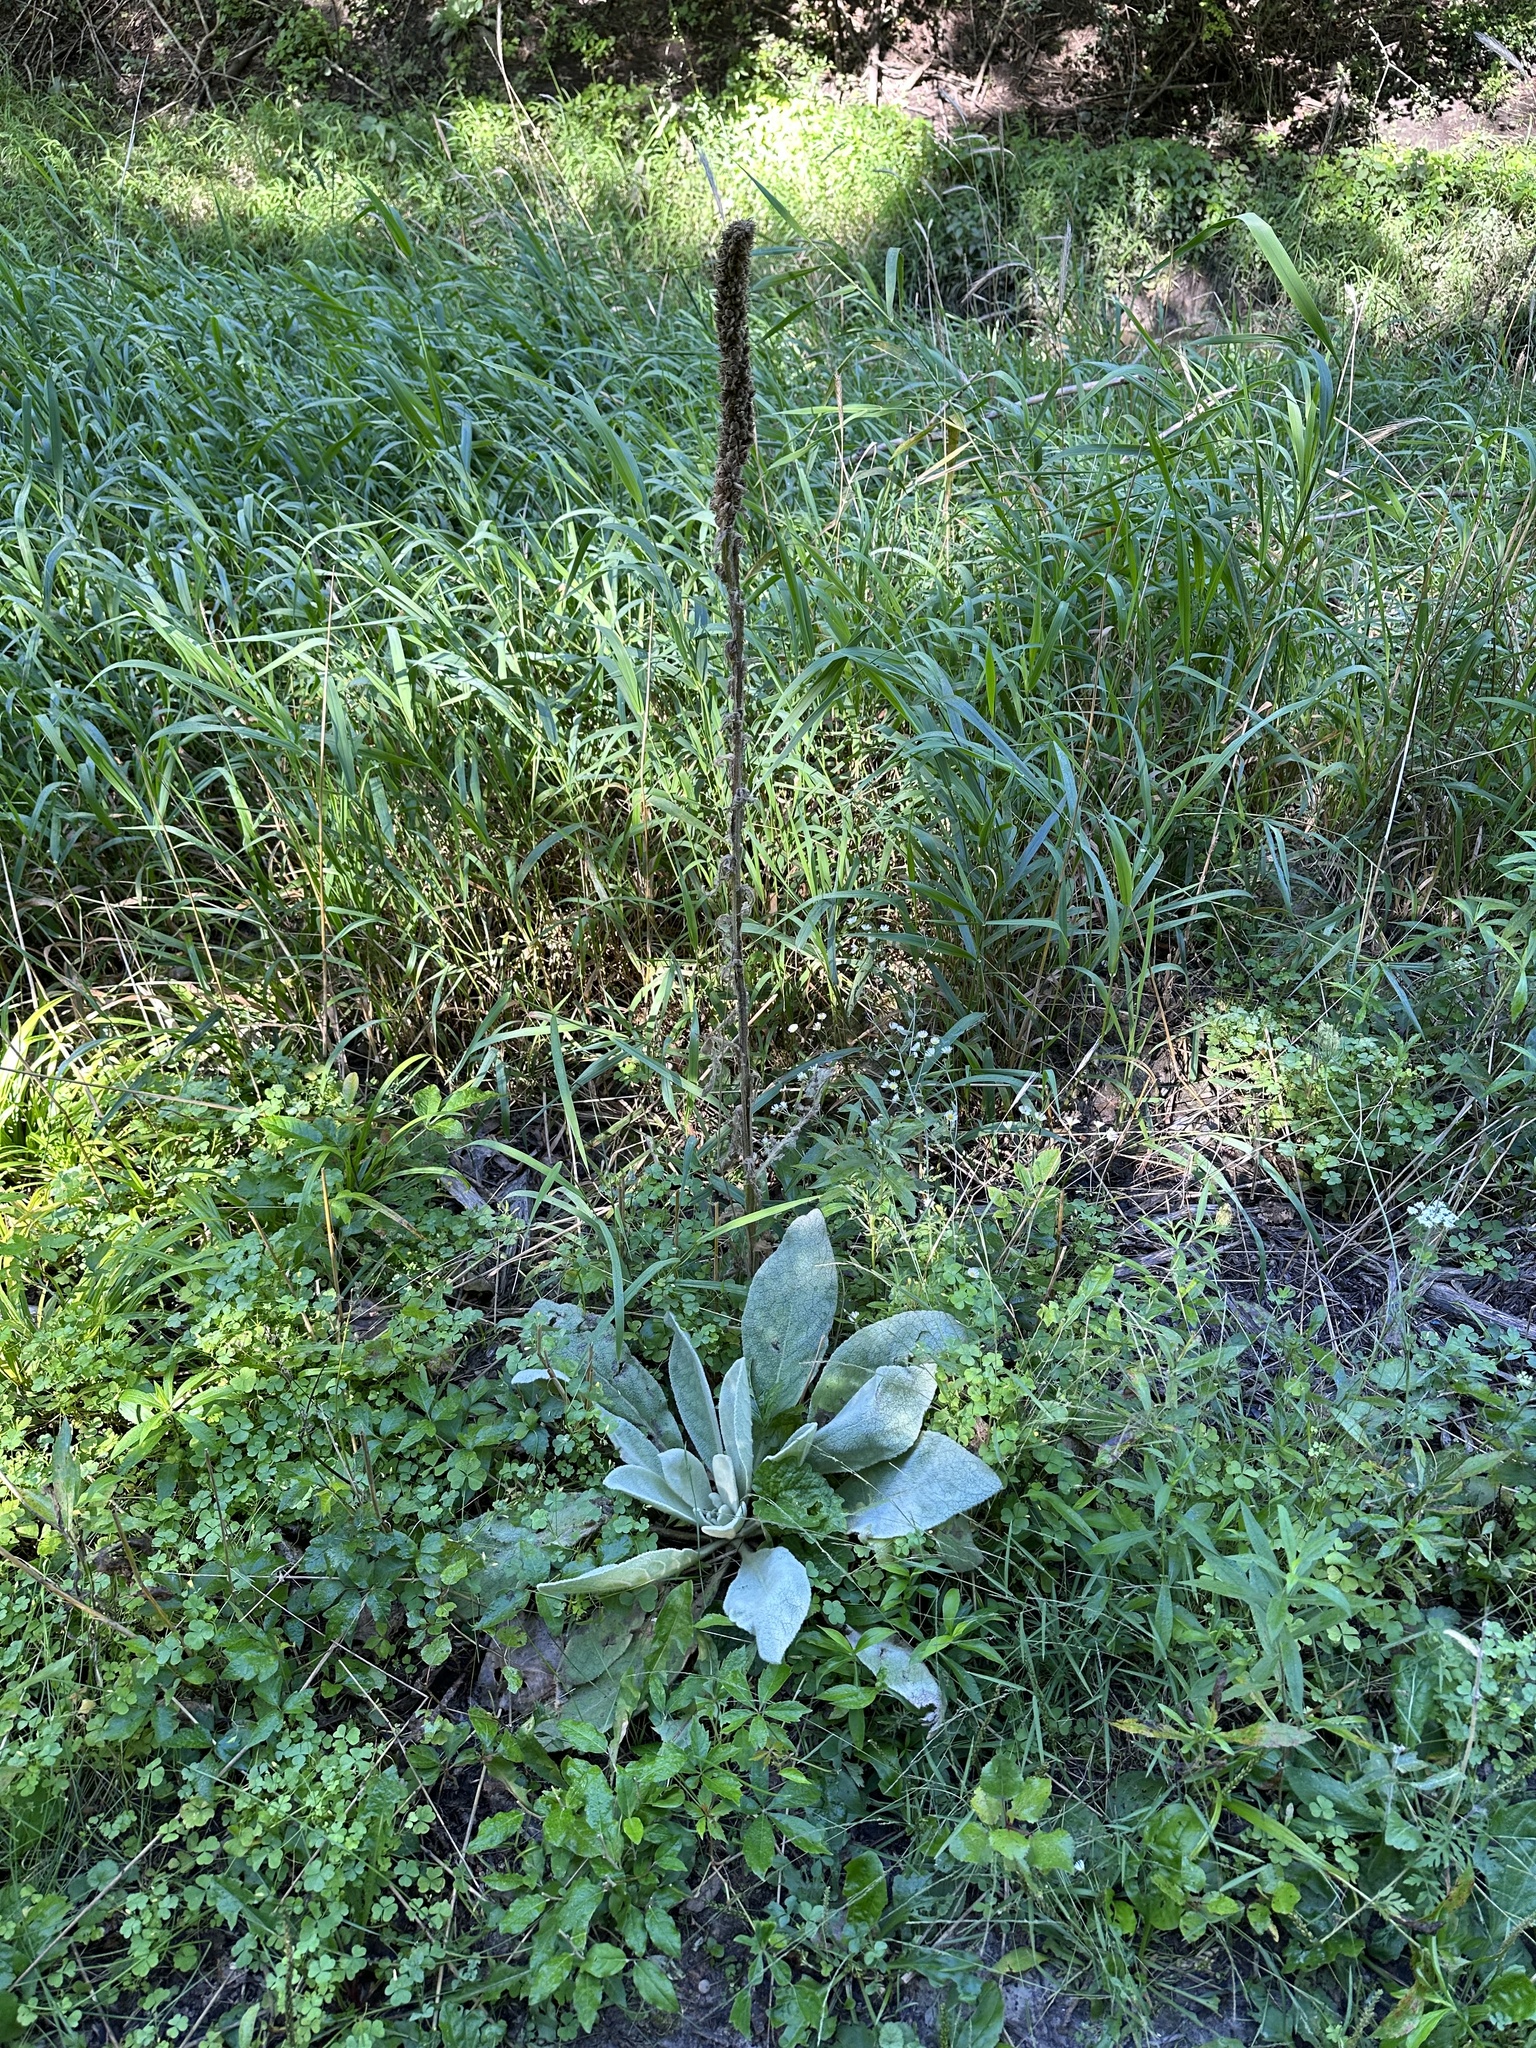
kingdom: Plantae
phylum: Tracheophyta
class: Magnoliopsida
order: Lamiales
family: Scrophulariaceae
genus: Verbascum
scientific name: Verbascum thapsus
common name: Common mullein
